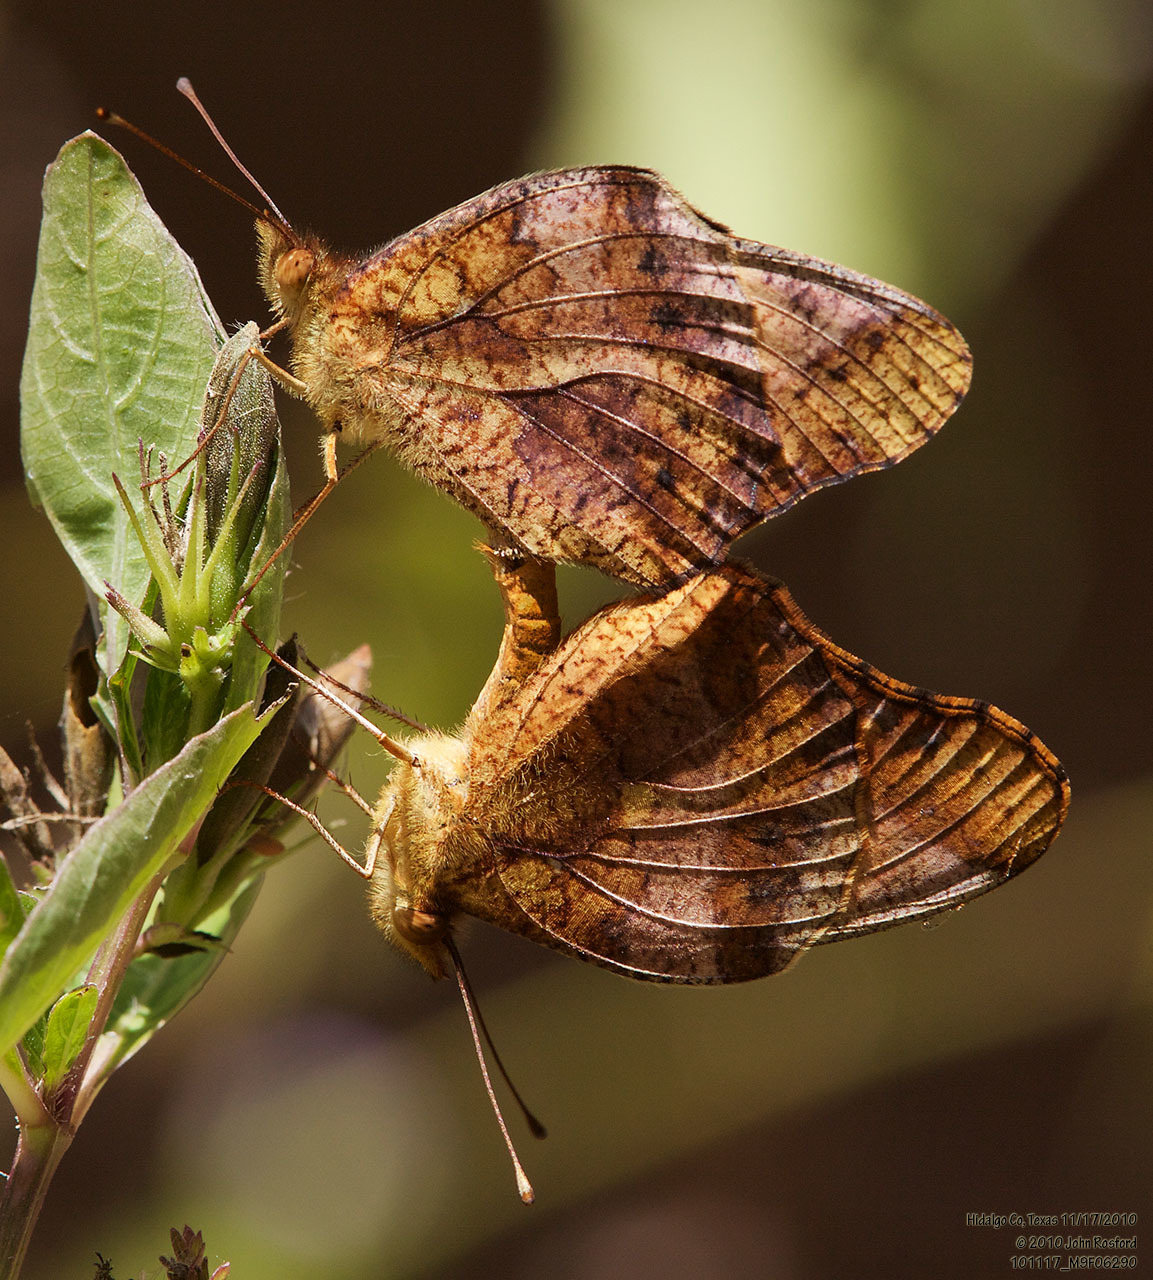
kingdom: Animalia
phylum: Arthropoda
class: Insecta
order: Lepidoptera
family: Nymphalidae
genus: Euptoieta
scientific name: Euptoieta hegesia
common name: Mexican fritillary
